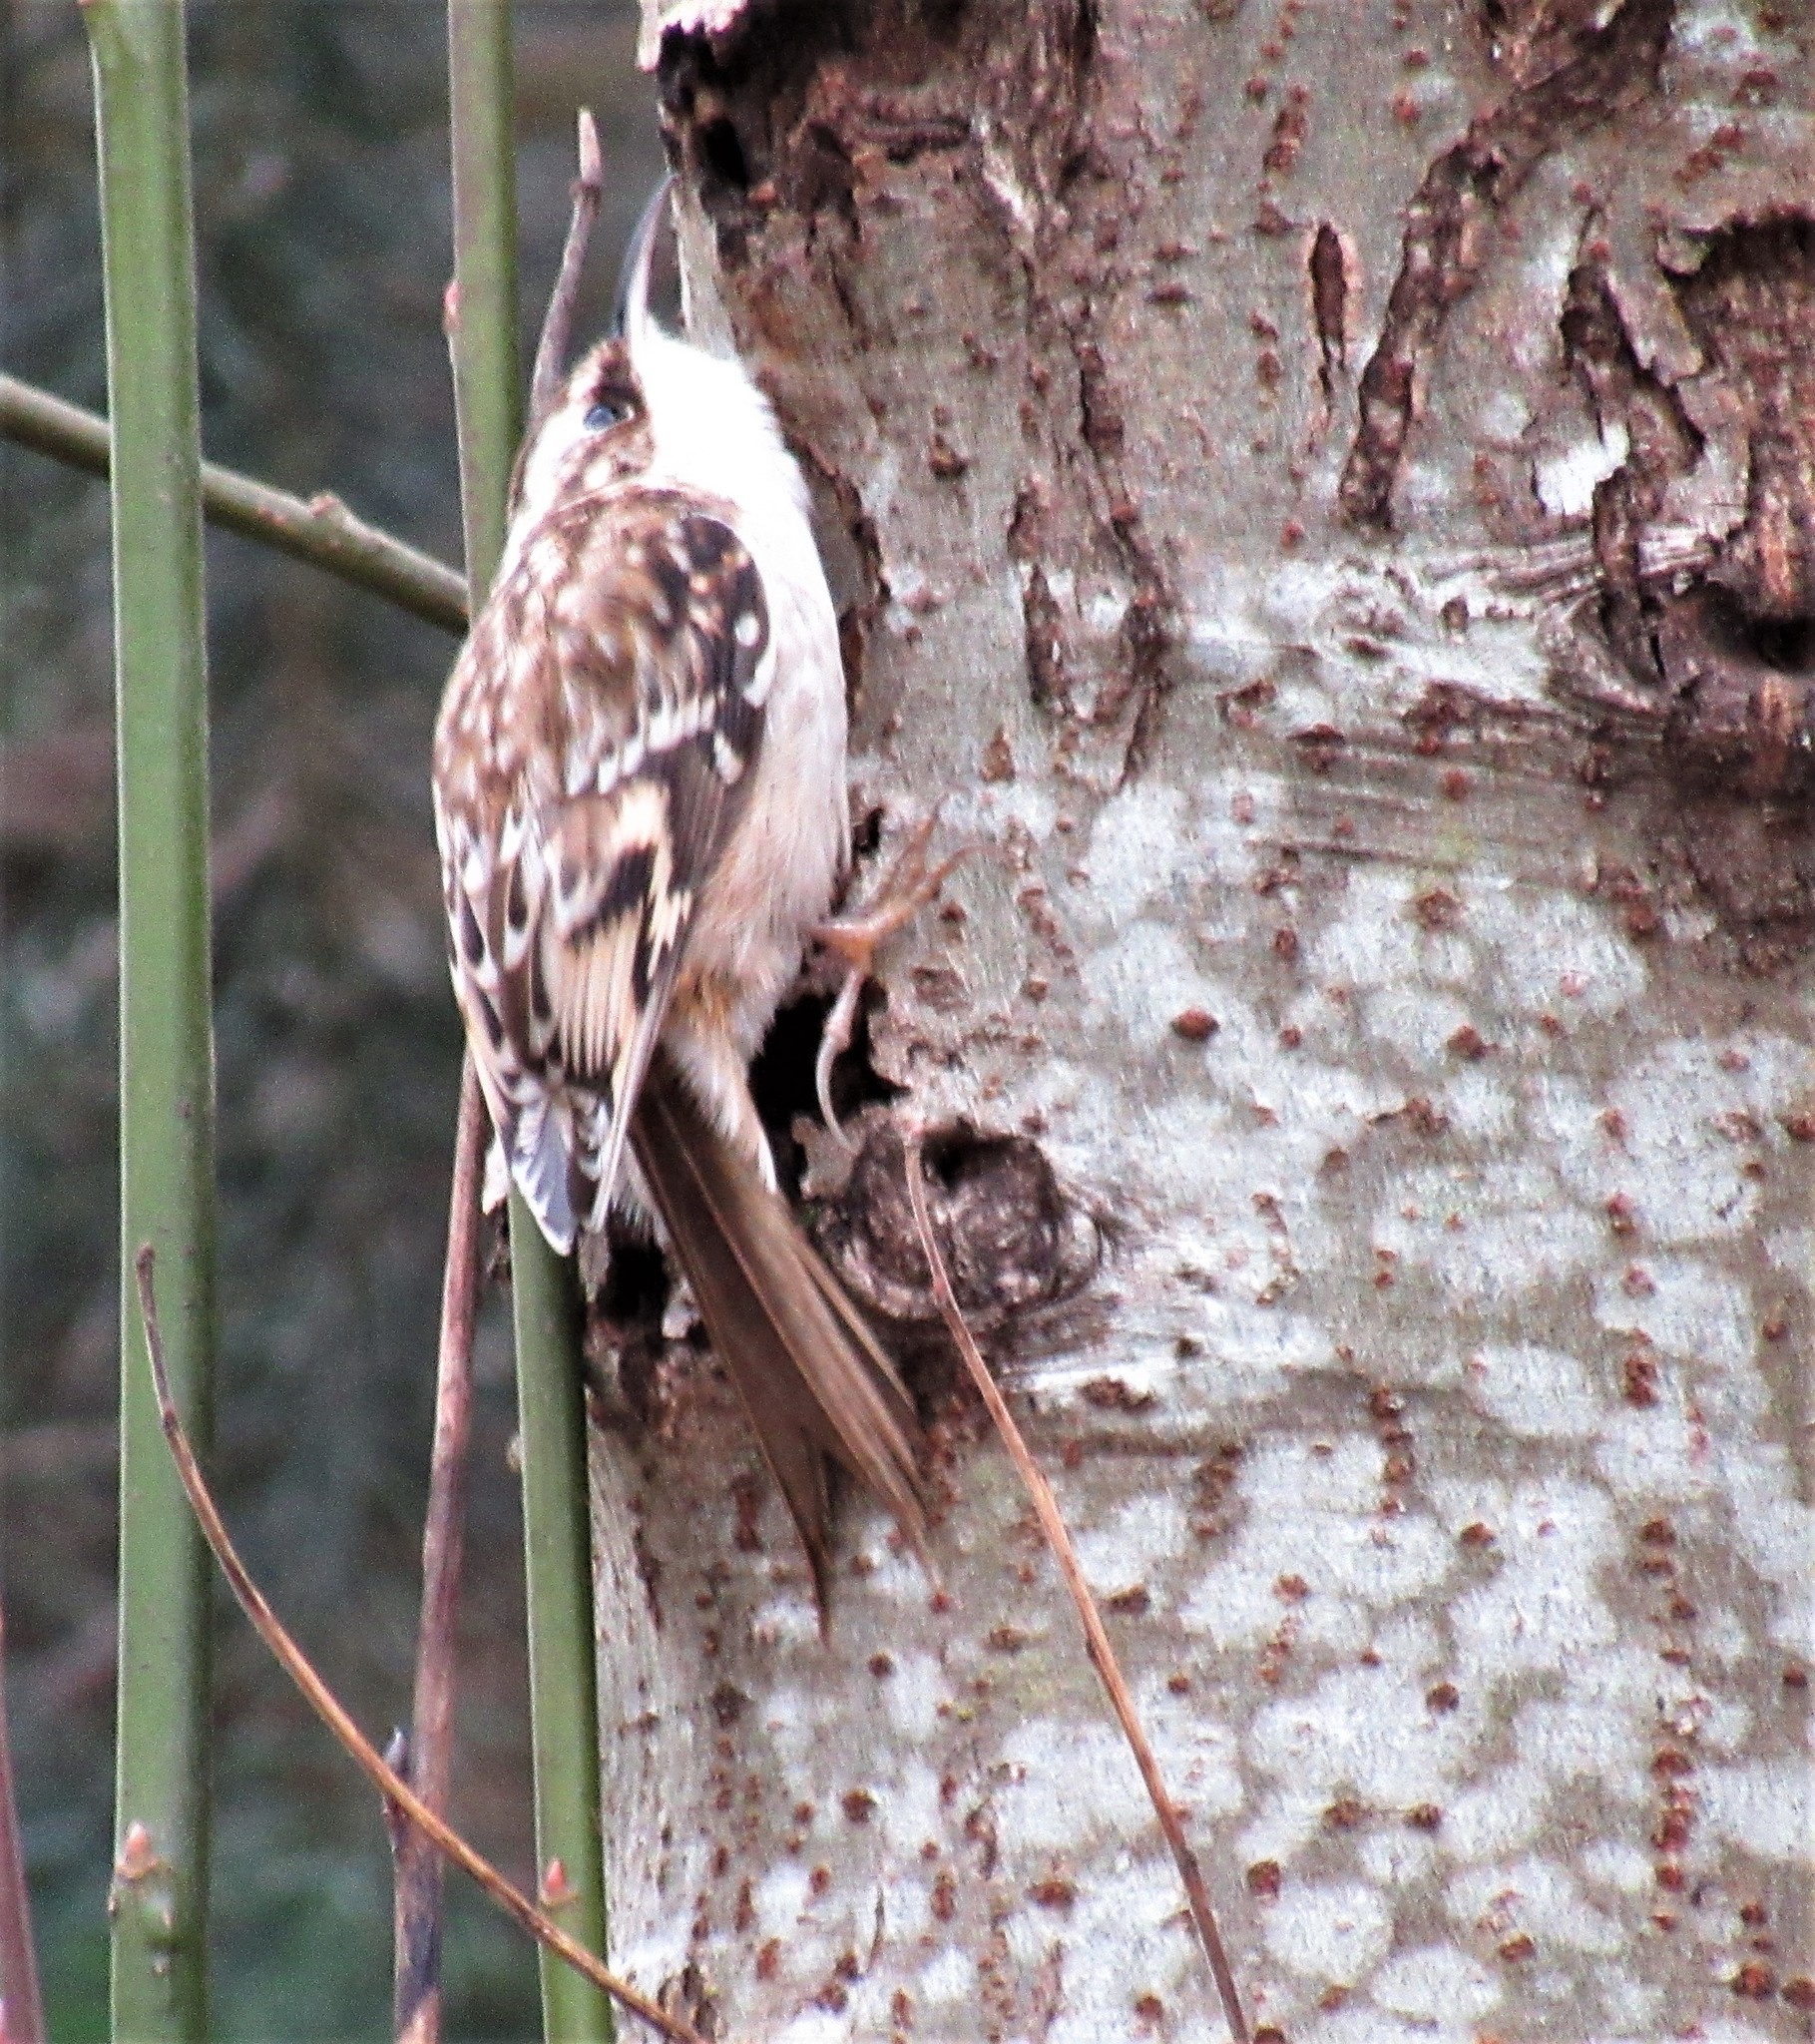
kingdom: Animalia
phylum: Chordata
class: Aves
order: Passeriformes
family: Certhiidae
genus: Certhia
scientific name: Certhia americana
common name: Brown creeper
